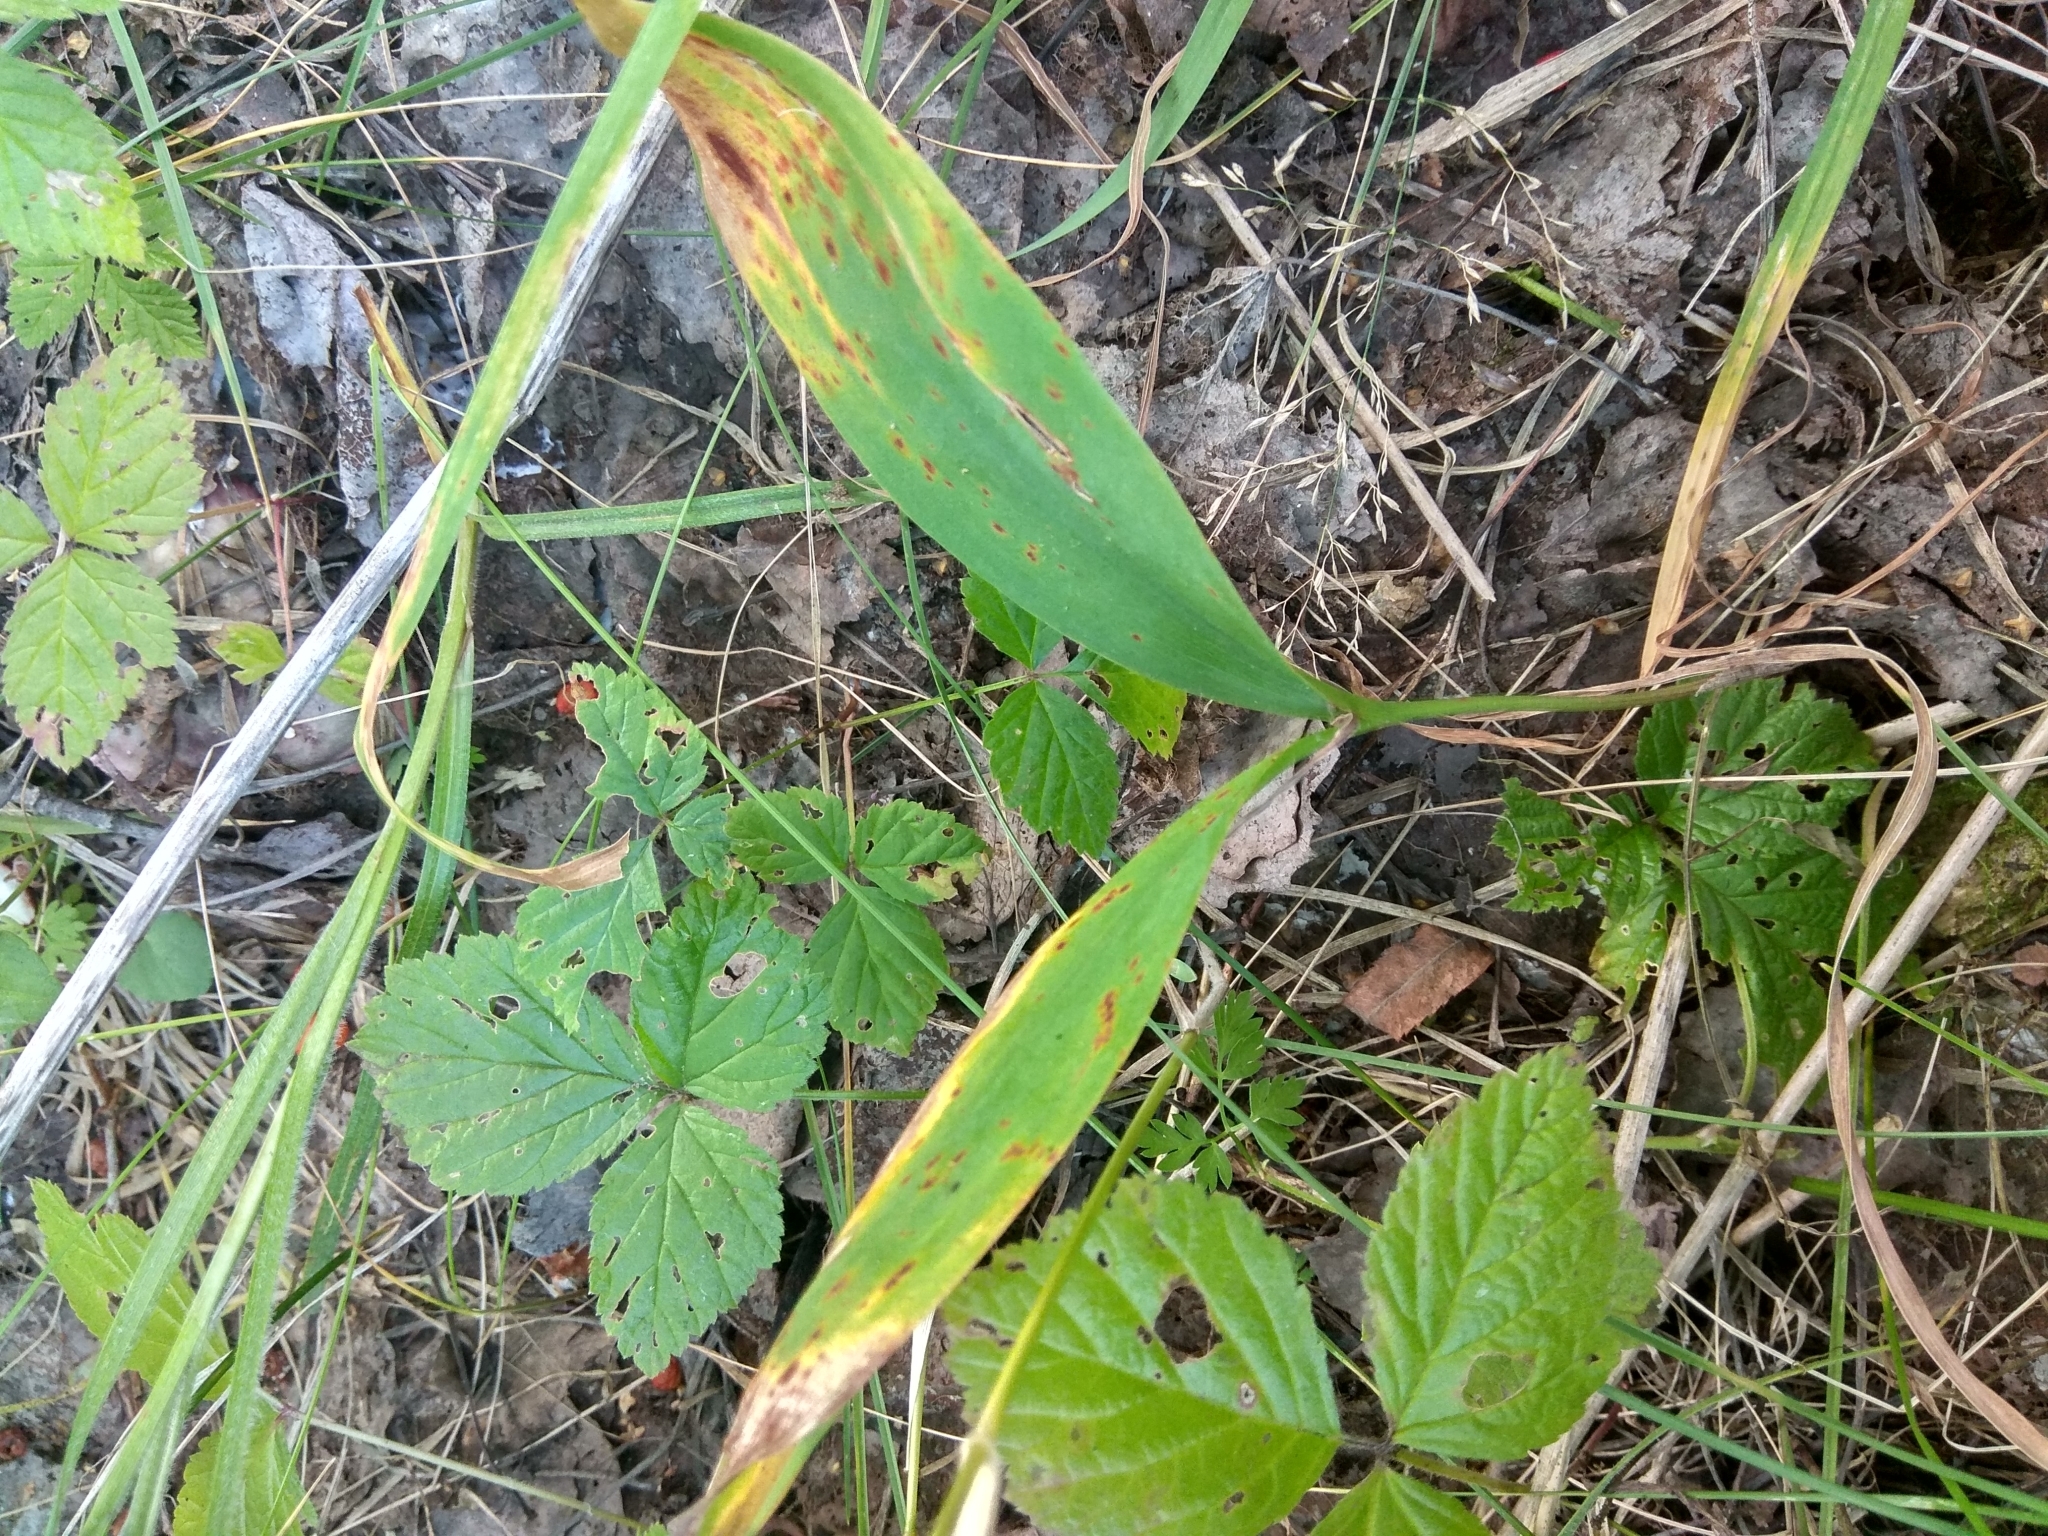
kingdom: Plantae
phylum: Tracheophyta
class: Liliopsida
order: Asparagales
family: Asparagaceae
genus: Convallaria
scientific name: Convallaria majalis
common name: Lily-of-the-valley
